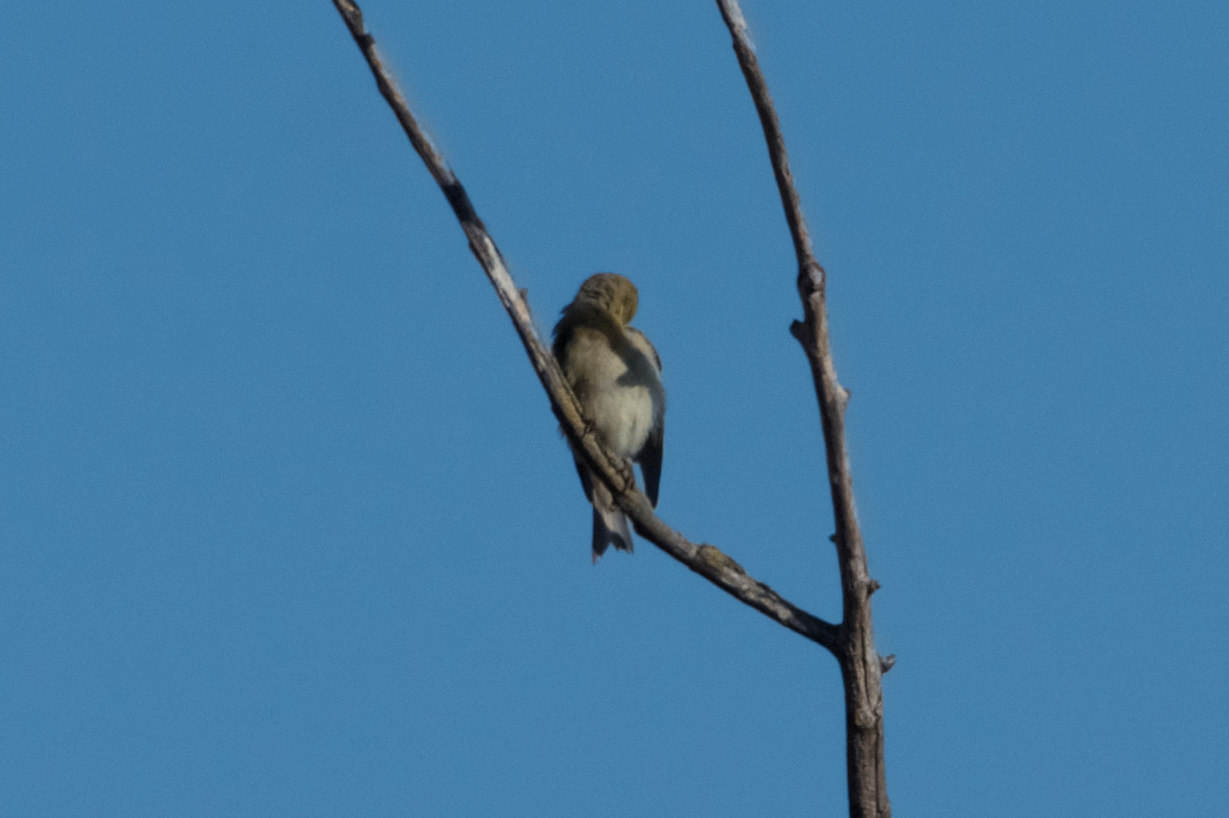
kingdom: Animalia
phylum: Chordata
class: Aves
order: Passeriformes
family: Fringillidae
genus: Spinus
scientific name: Spinus tristis
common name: American goldfinch
